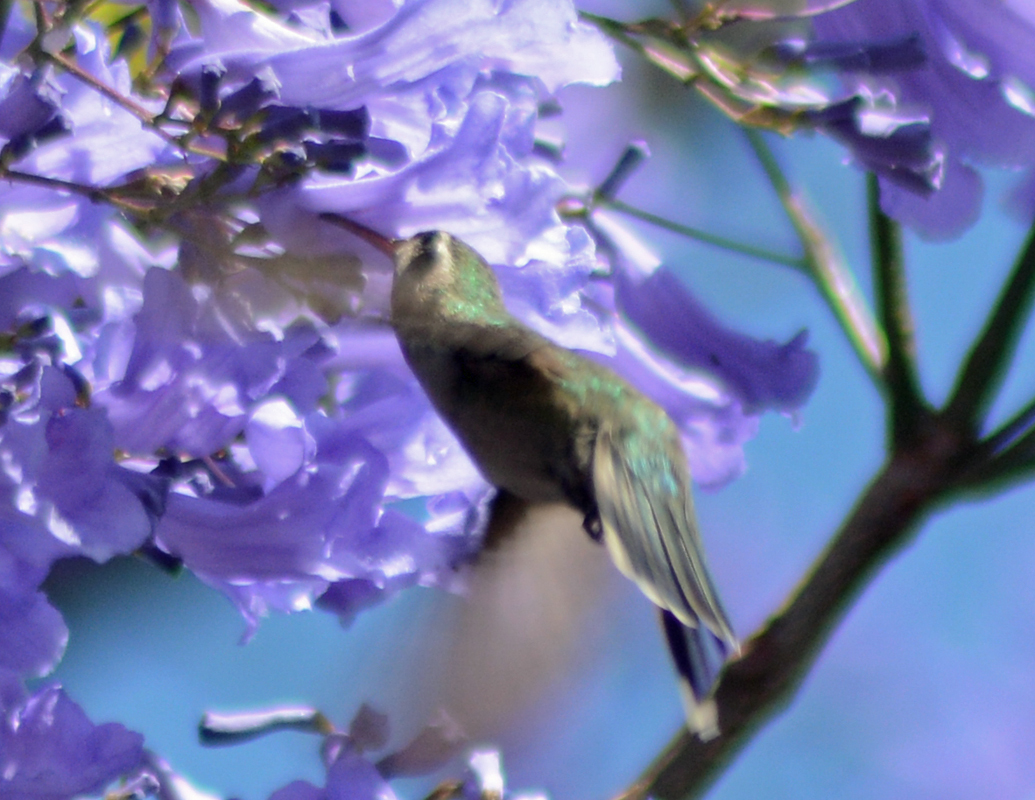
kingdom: Animalia
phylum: Chordata
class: Aves
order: Apodiformes
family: Trochilidae
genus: Cynanthus
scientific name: Cynanthus latirostris
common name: Broad-billed hummingbird
